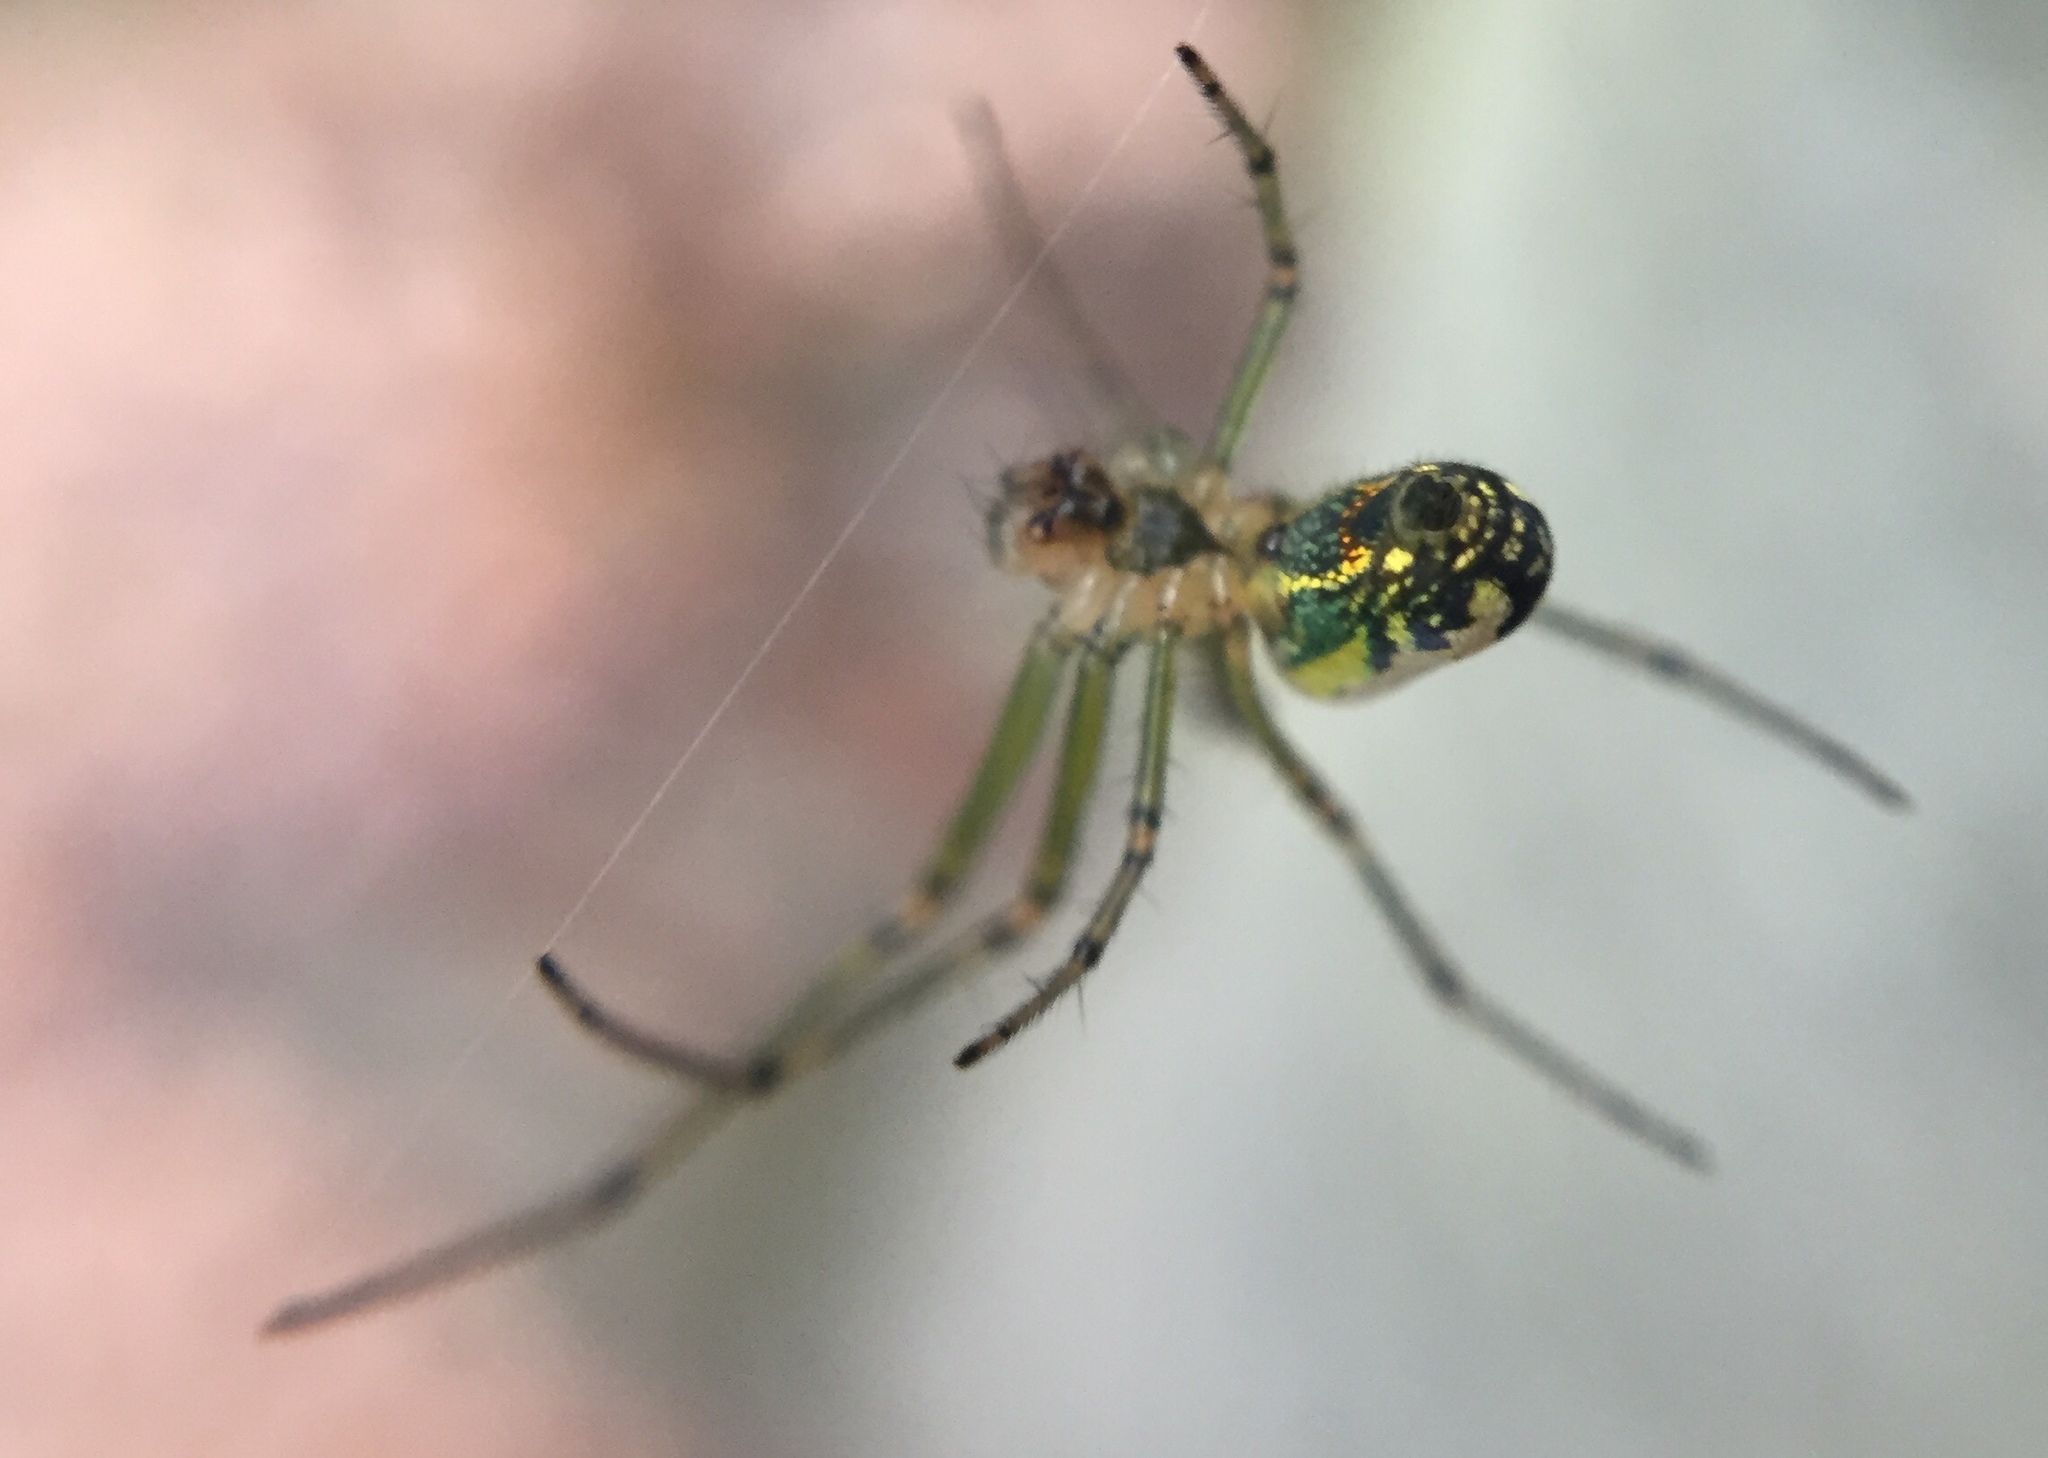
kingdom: Animalia
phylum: Arthropoda
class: Arachnida
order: Araneae
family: Tetragnathidae
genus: Leucauge
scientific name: Leucauge venusta
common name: Longjawed orb weavers
